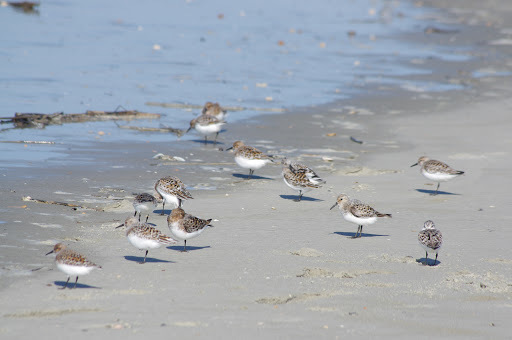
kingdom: Animalia
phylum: Chordata
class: Aves
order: Charadriiformes
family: Scolopacidae
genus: Calidris
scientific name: Calidris alba
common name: Sanderling
